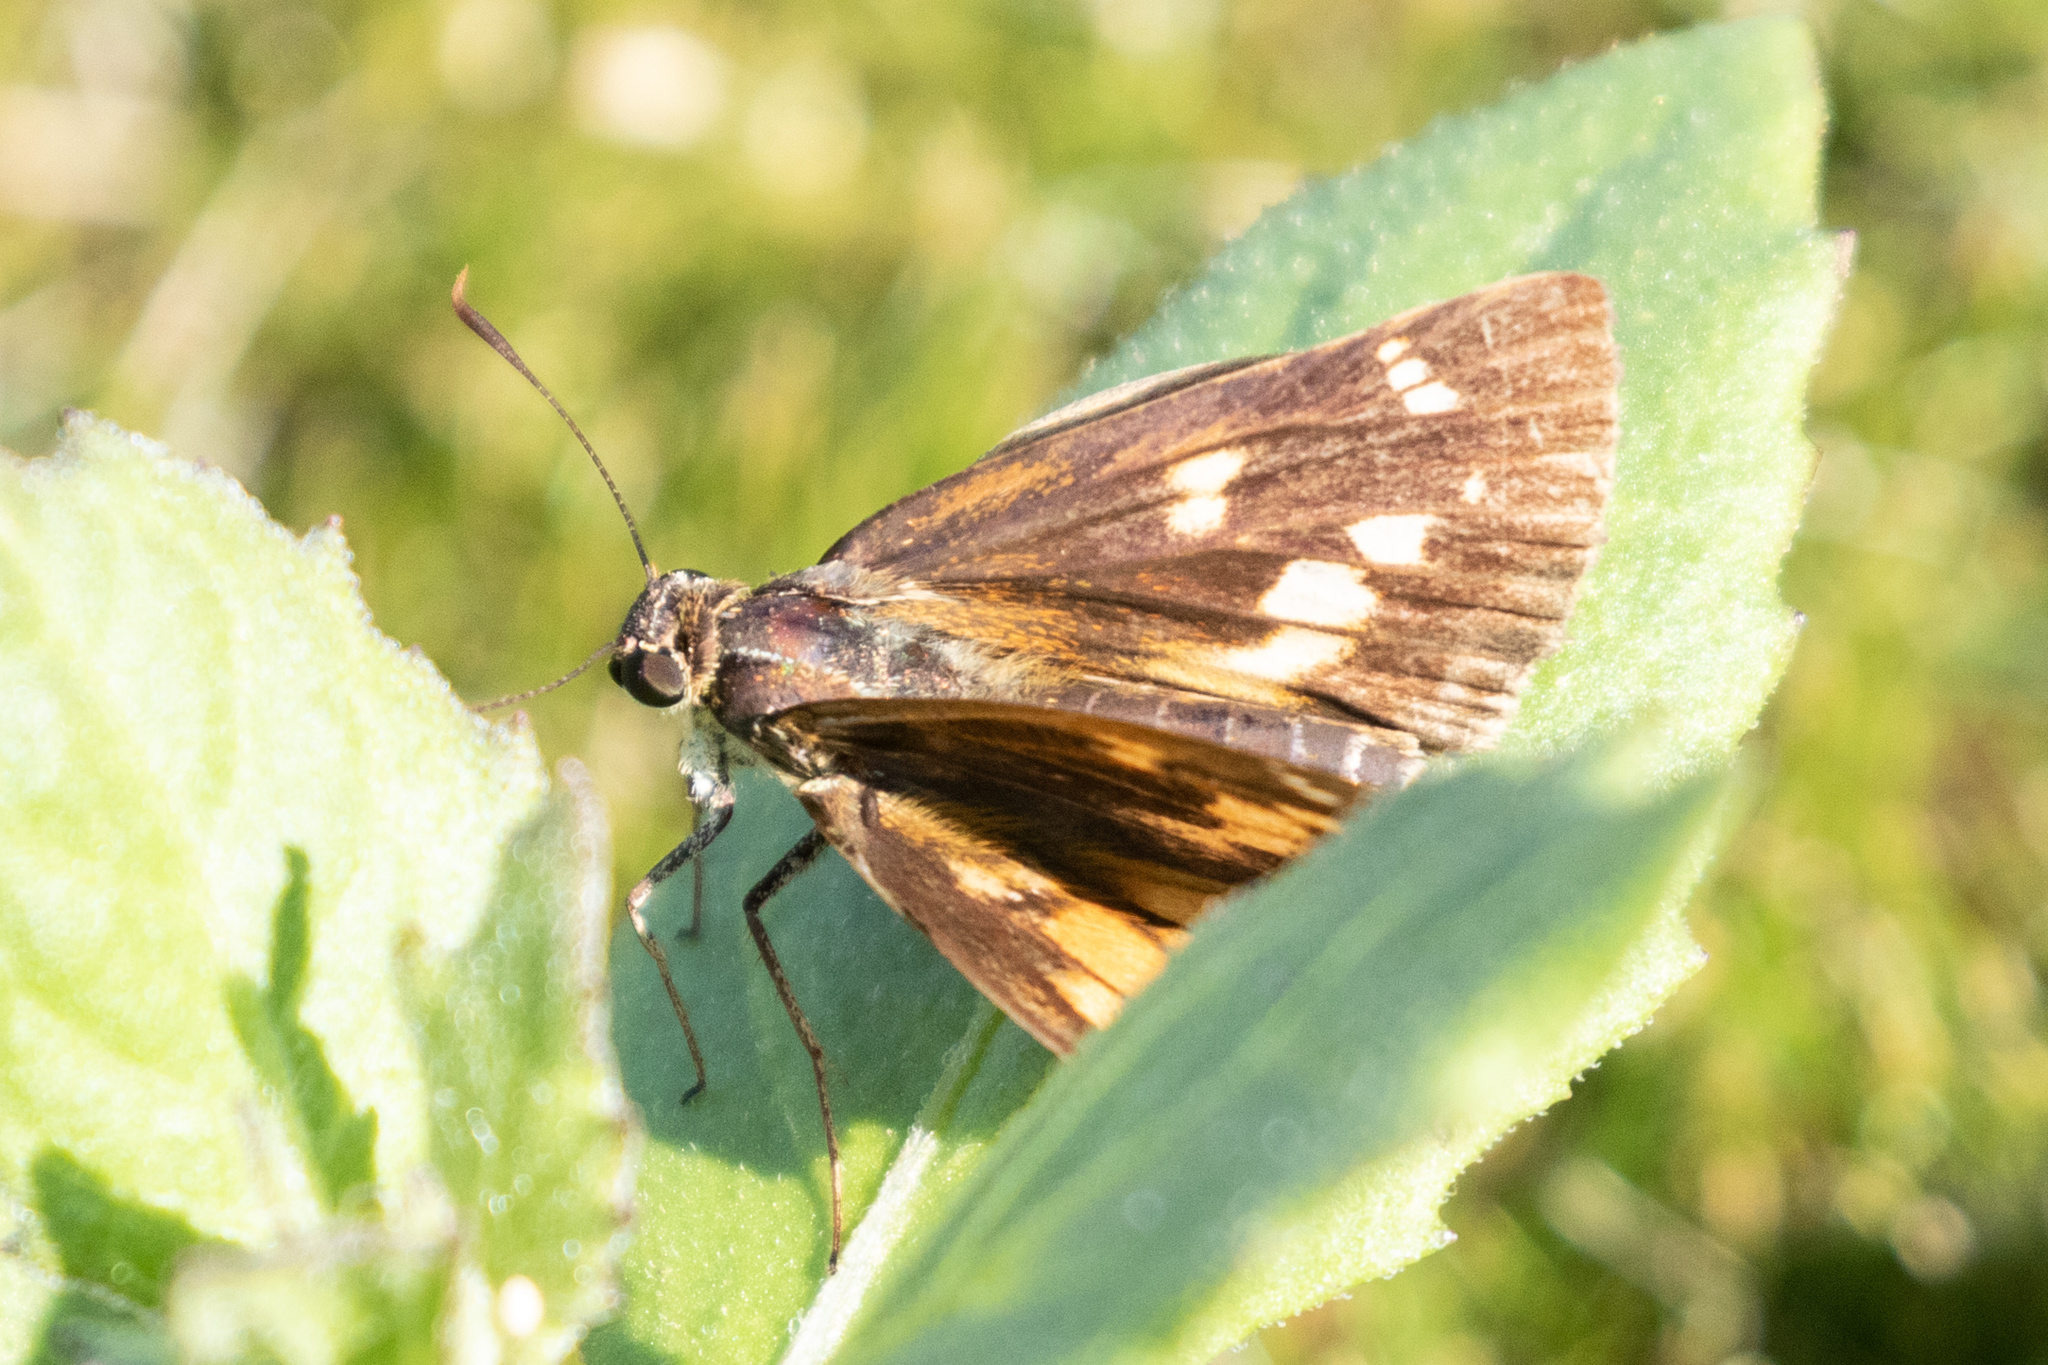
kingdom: Animalia
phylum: Arthropoda
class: Insecta
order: Lepidoptera
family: Hesperiidae
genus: Poanes
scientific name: Poanes viator
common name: Broad-winged skipper
